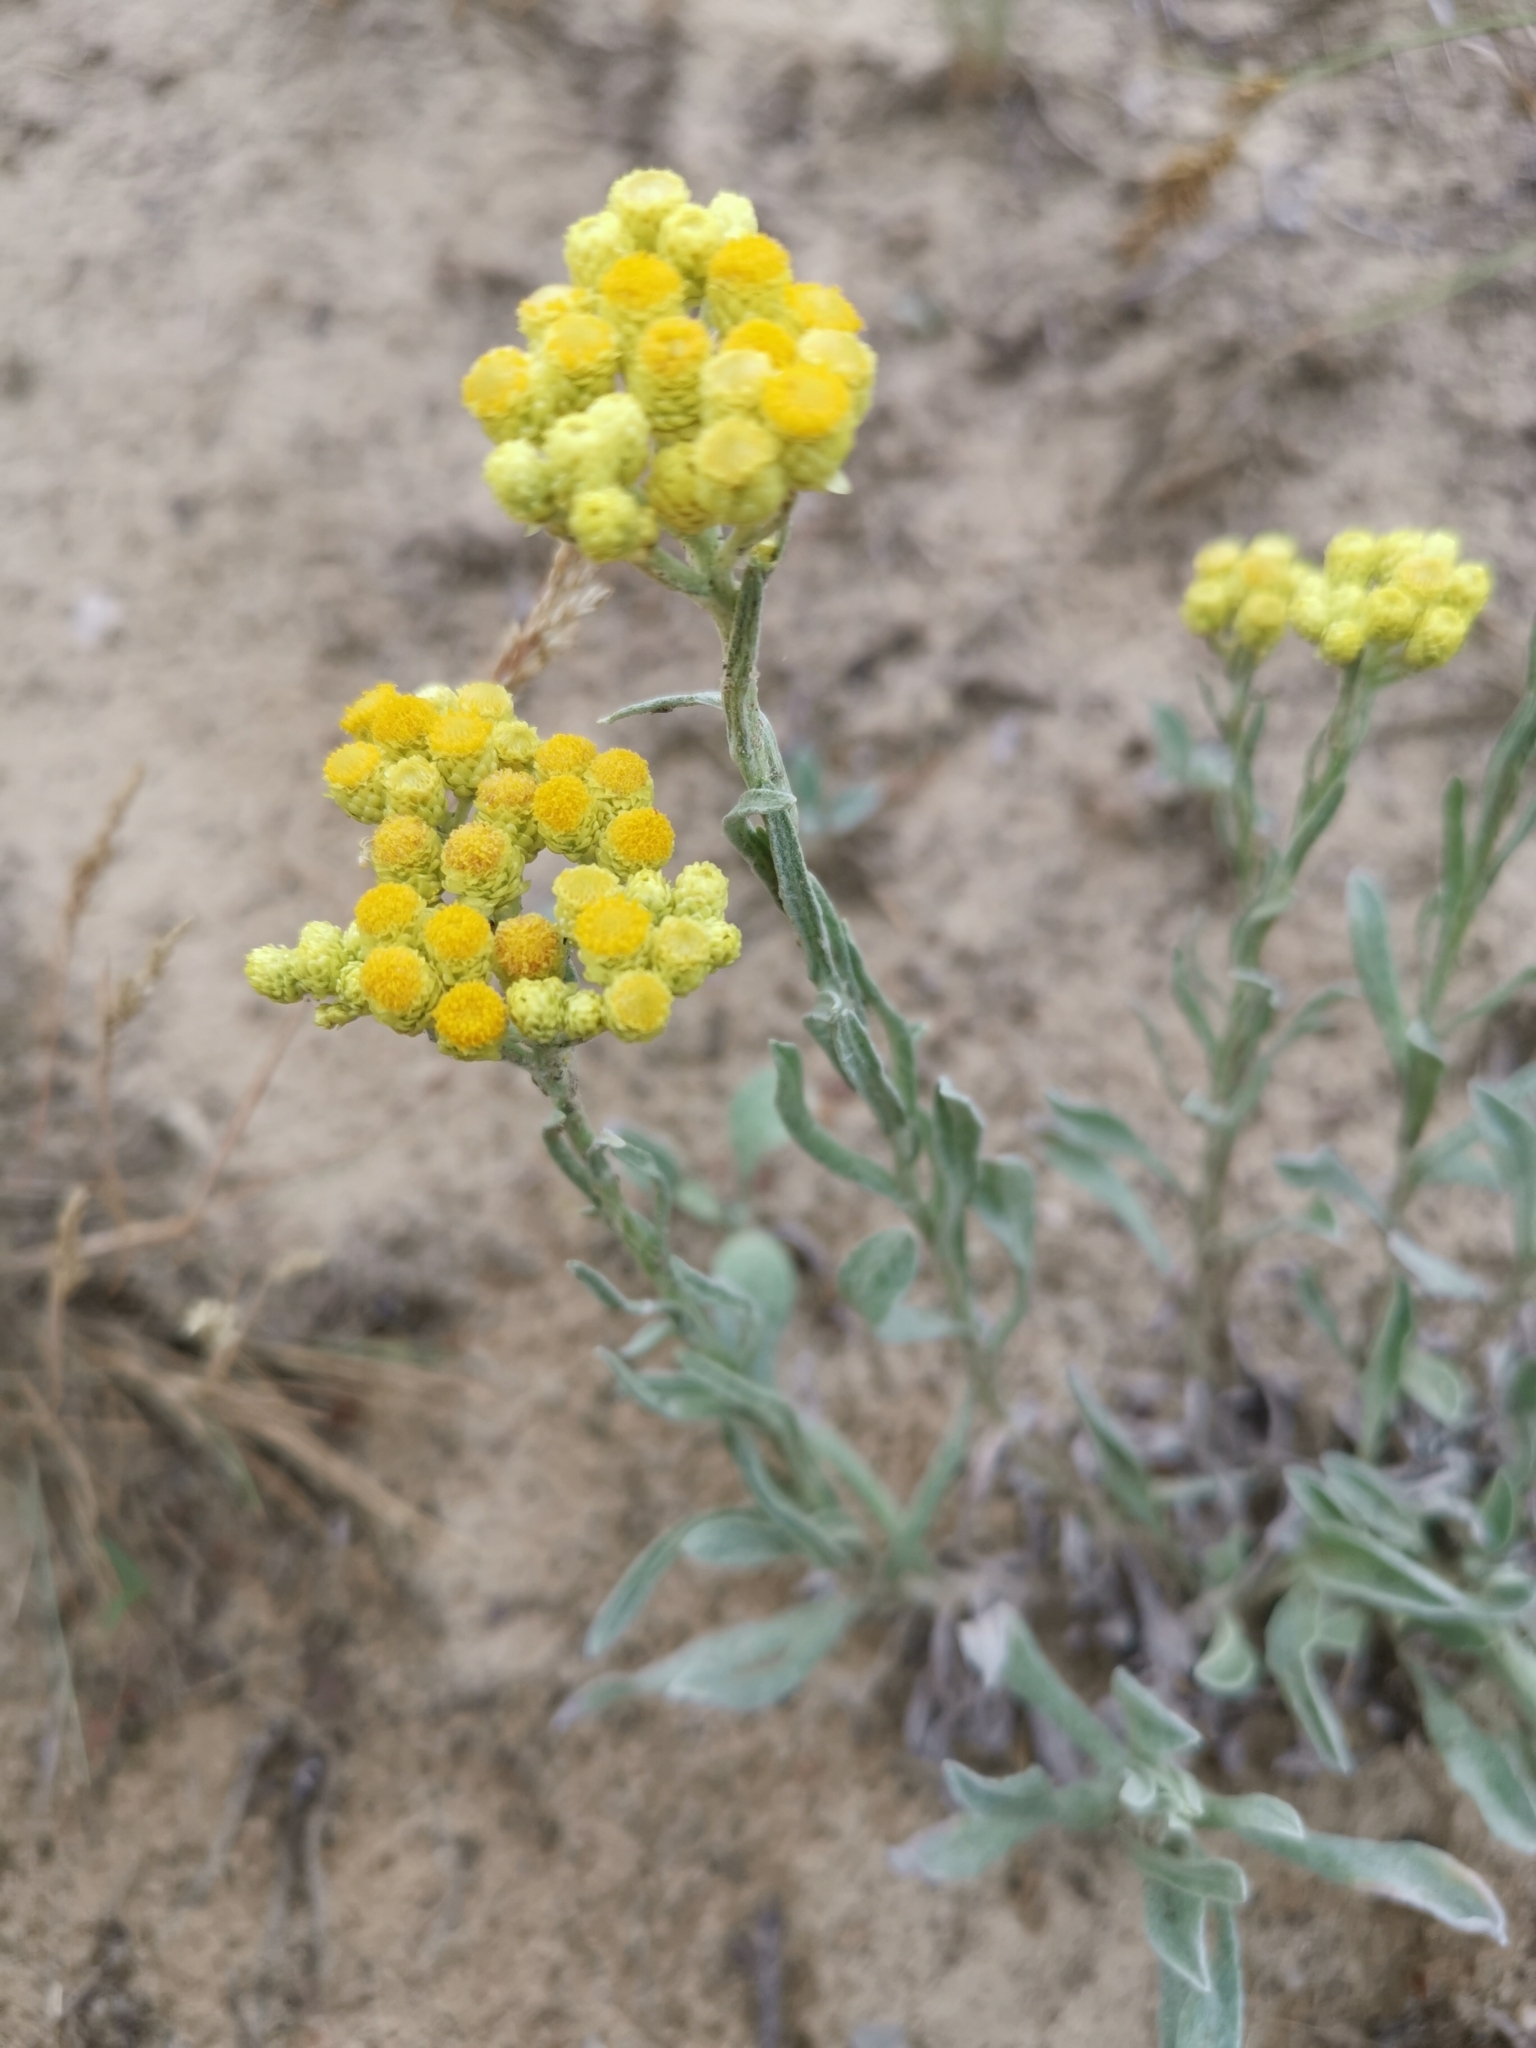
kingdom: Plantae
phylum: Tracheophyta
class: Magnoliopsida
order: Asterales
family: Asteraceae
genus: Helichrysum
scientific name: Helichrysum arenarium
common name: Strawflower
